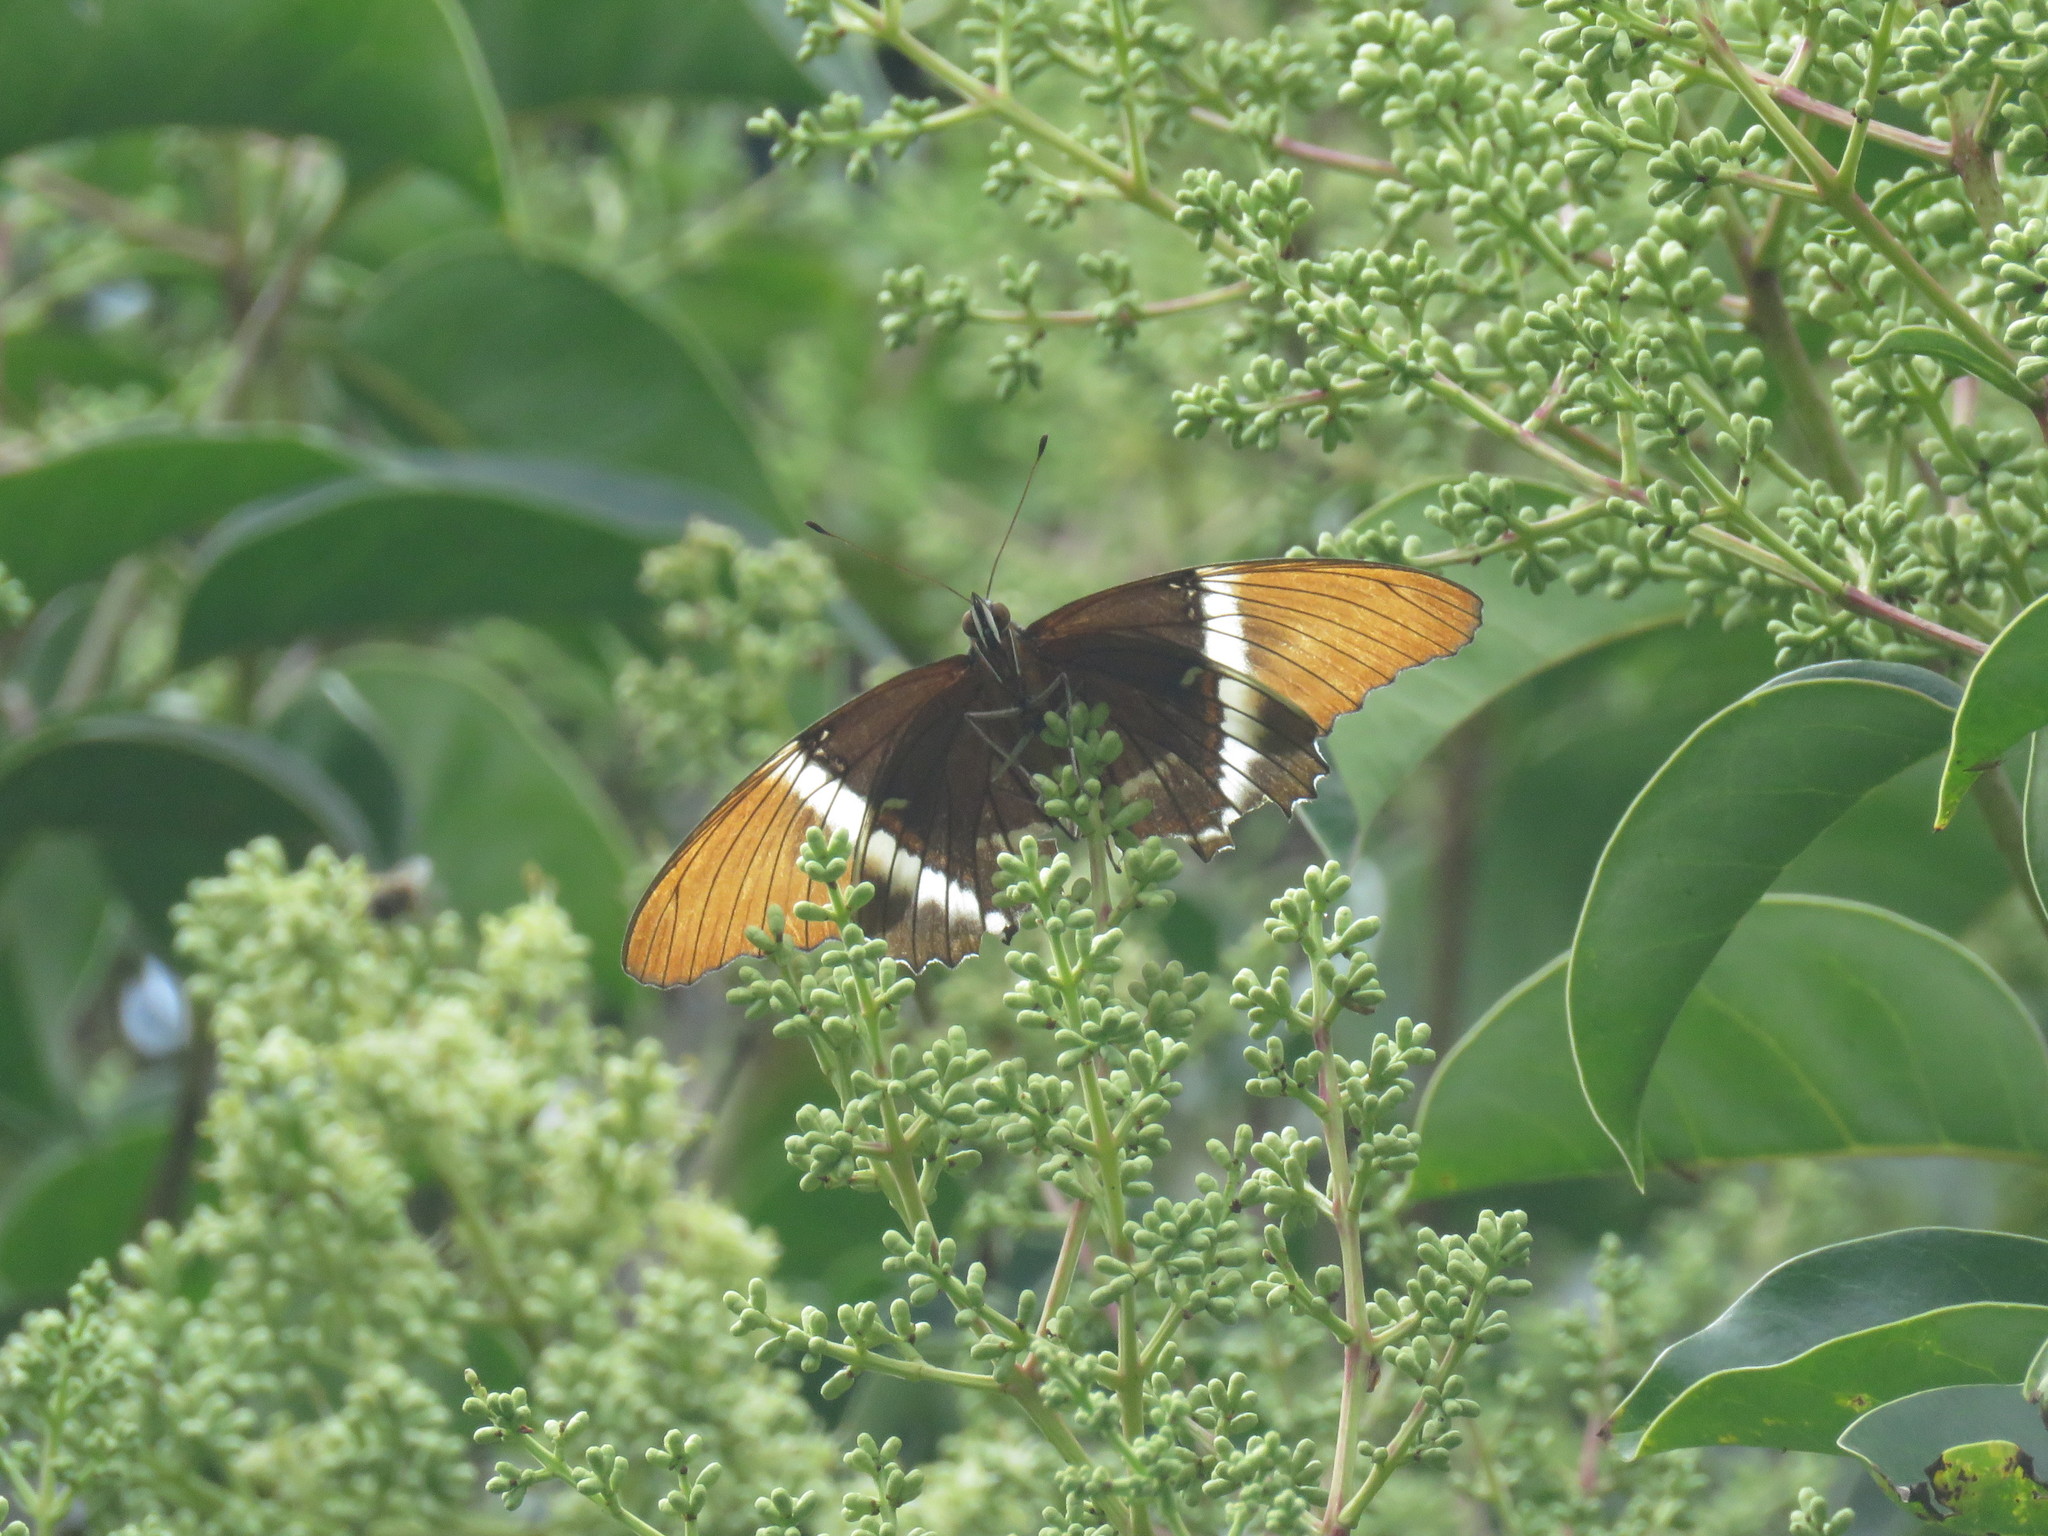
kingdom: Animalia
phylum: Arthropoda
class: Insecta
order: Lepidoptera
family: Nymphalidae
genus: Siproeta
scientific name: Siproeta epaphus
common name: Rusty-tipped page
